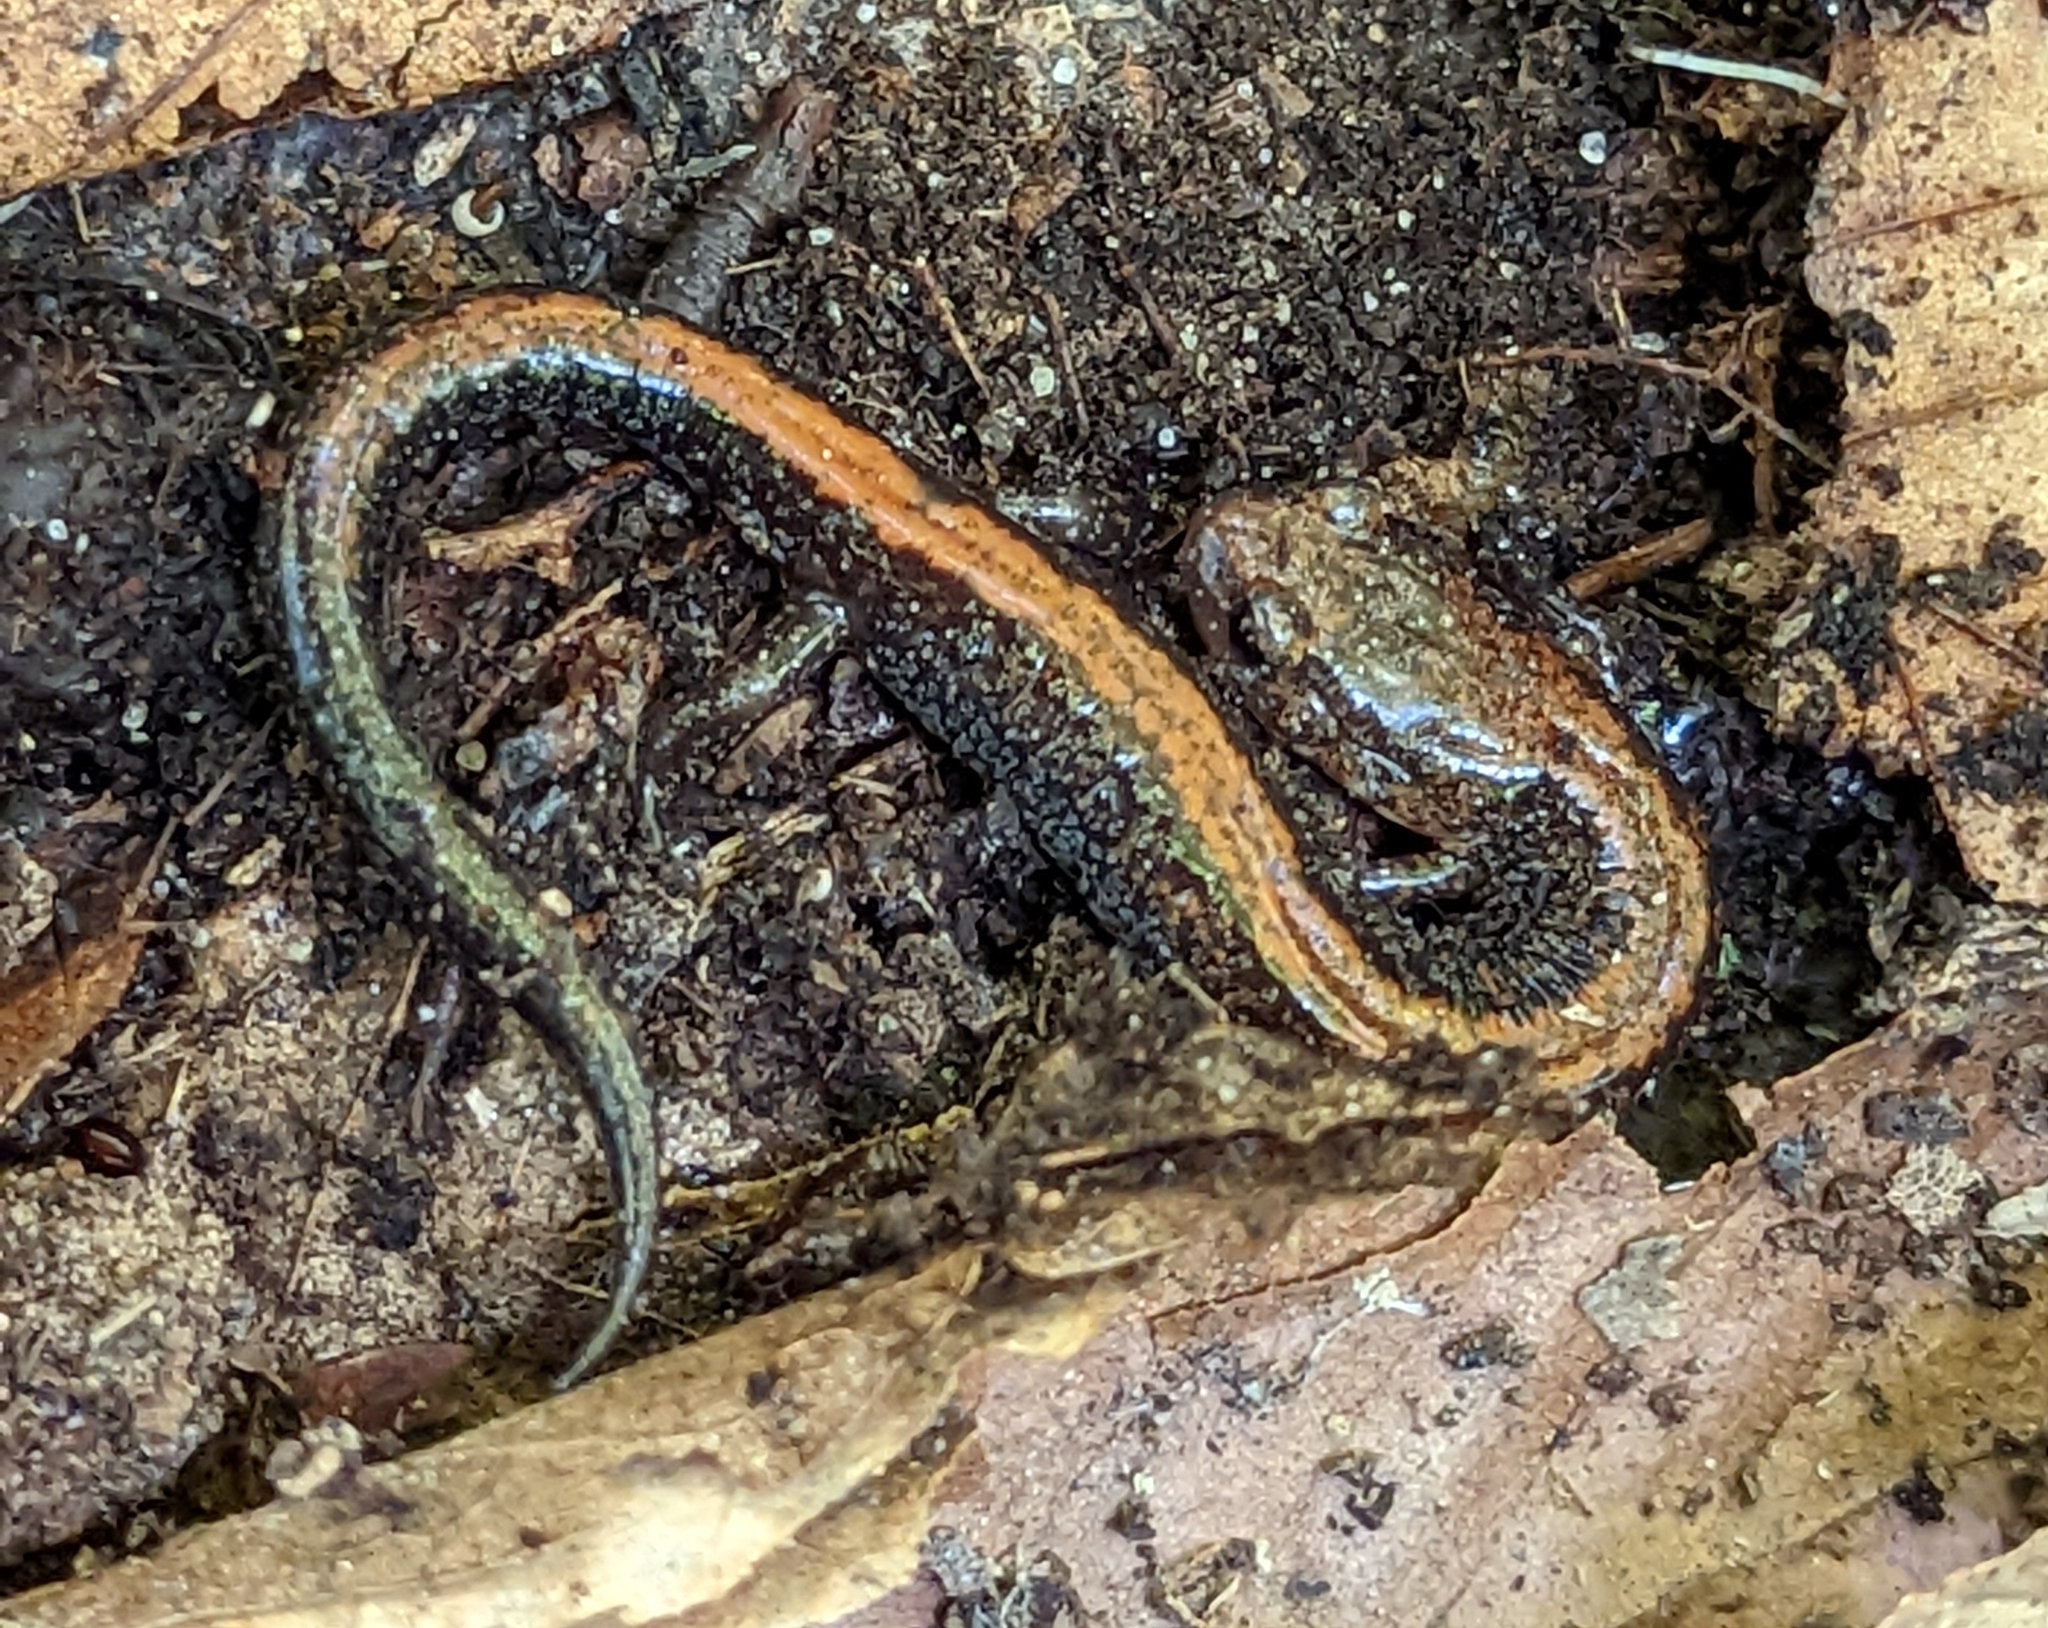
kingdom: Animalia
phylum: Chordata
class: Amphibia
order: Caudata
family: Plethodontidae
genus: Plethodon
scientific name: Plethodon cinereus
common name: Redback salamander
